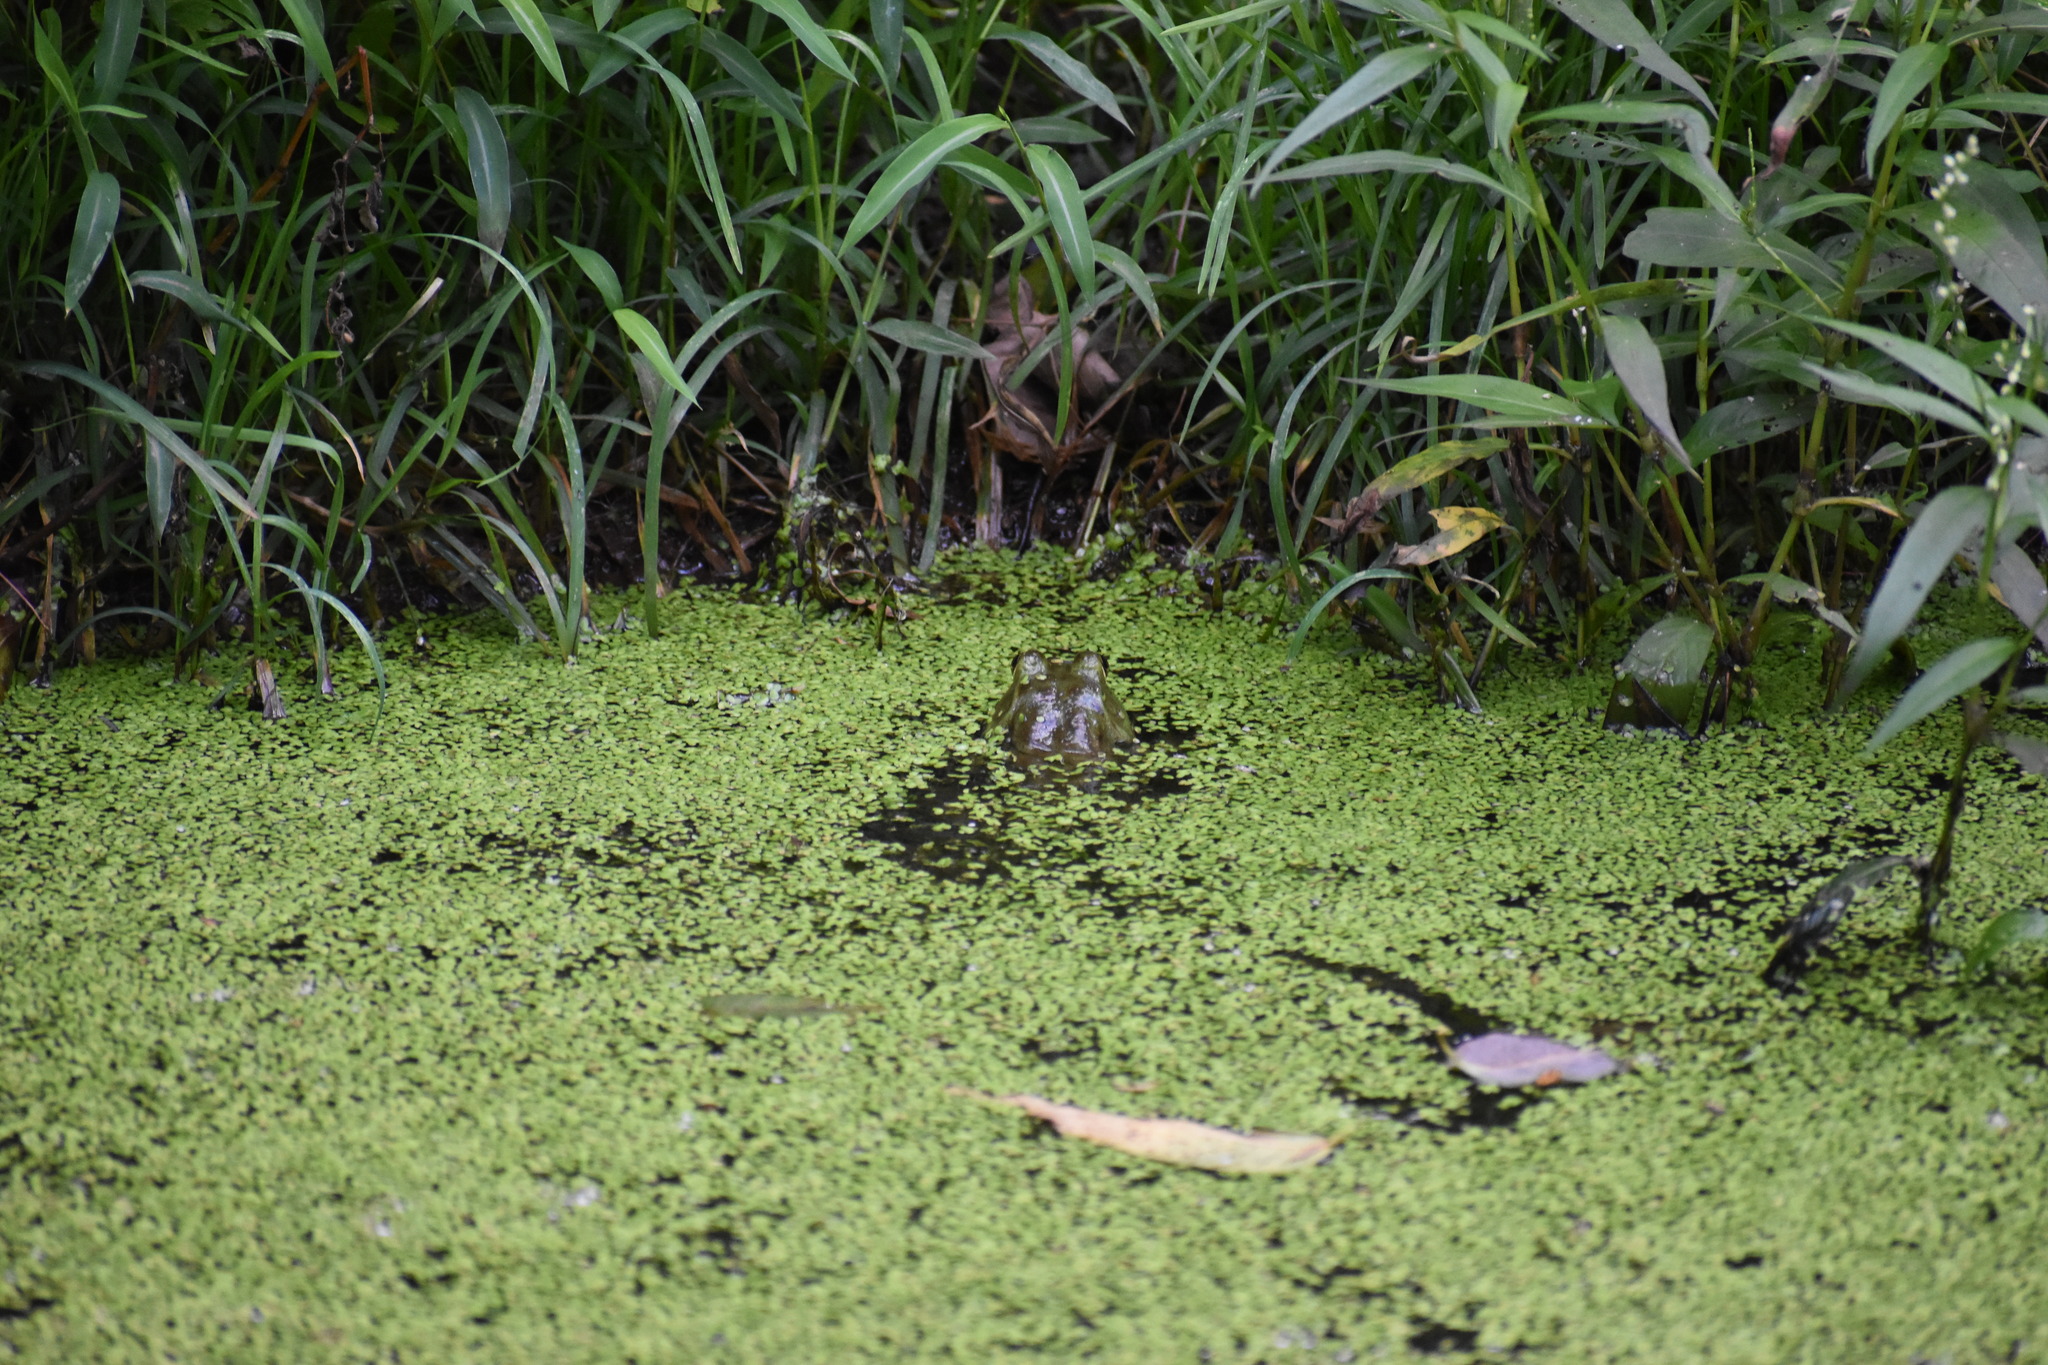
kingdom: Animalia
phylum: Chordata
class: Amphibia
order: Anura
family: Ranidae
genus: Lithobates
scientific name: Lithobates catesbeianus
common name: American bullfrog
